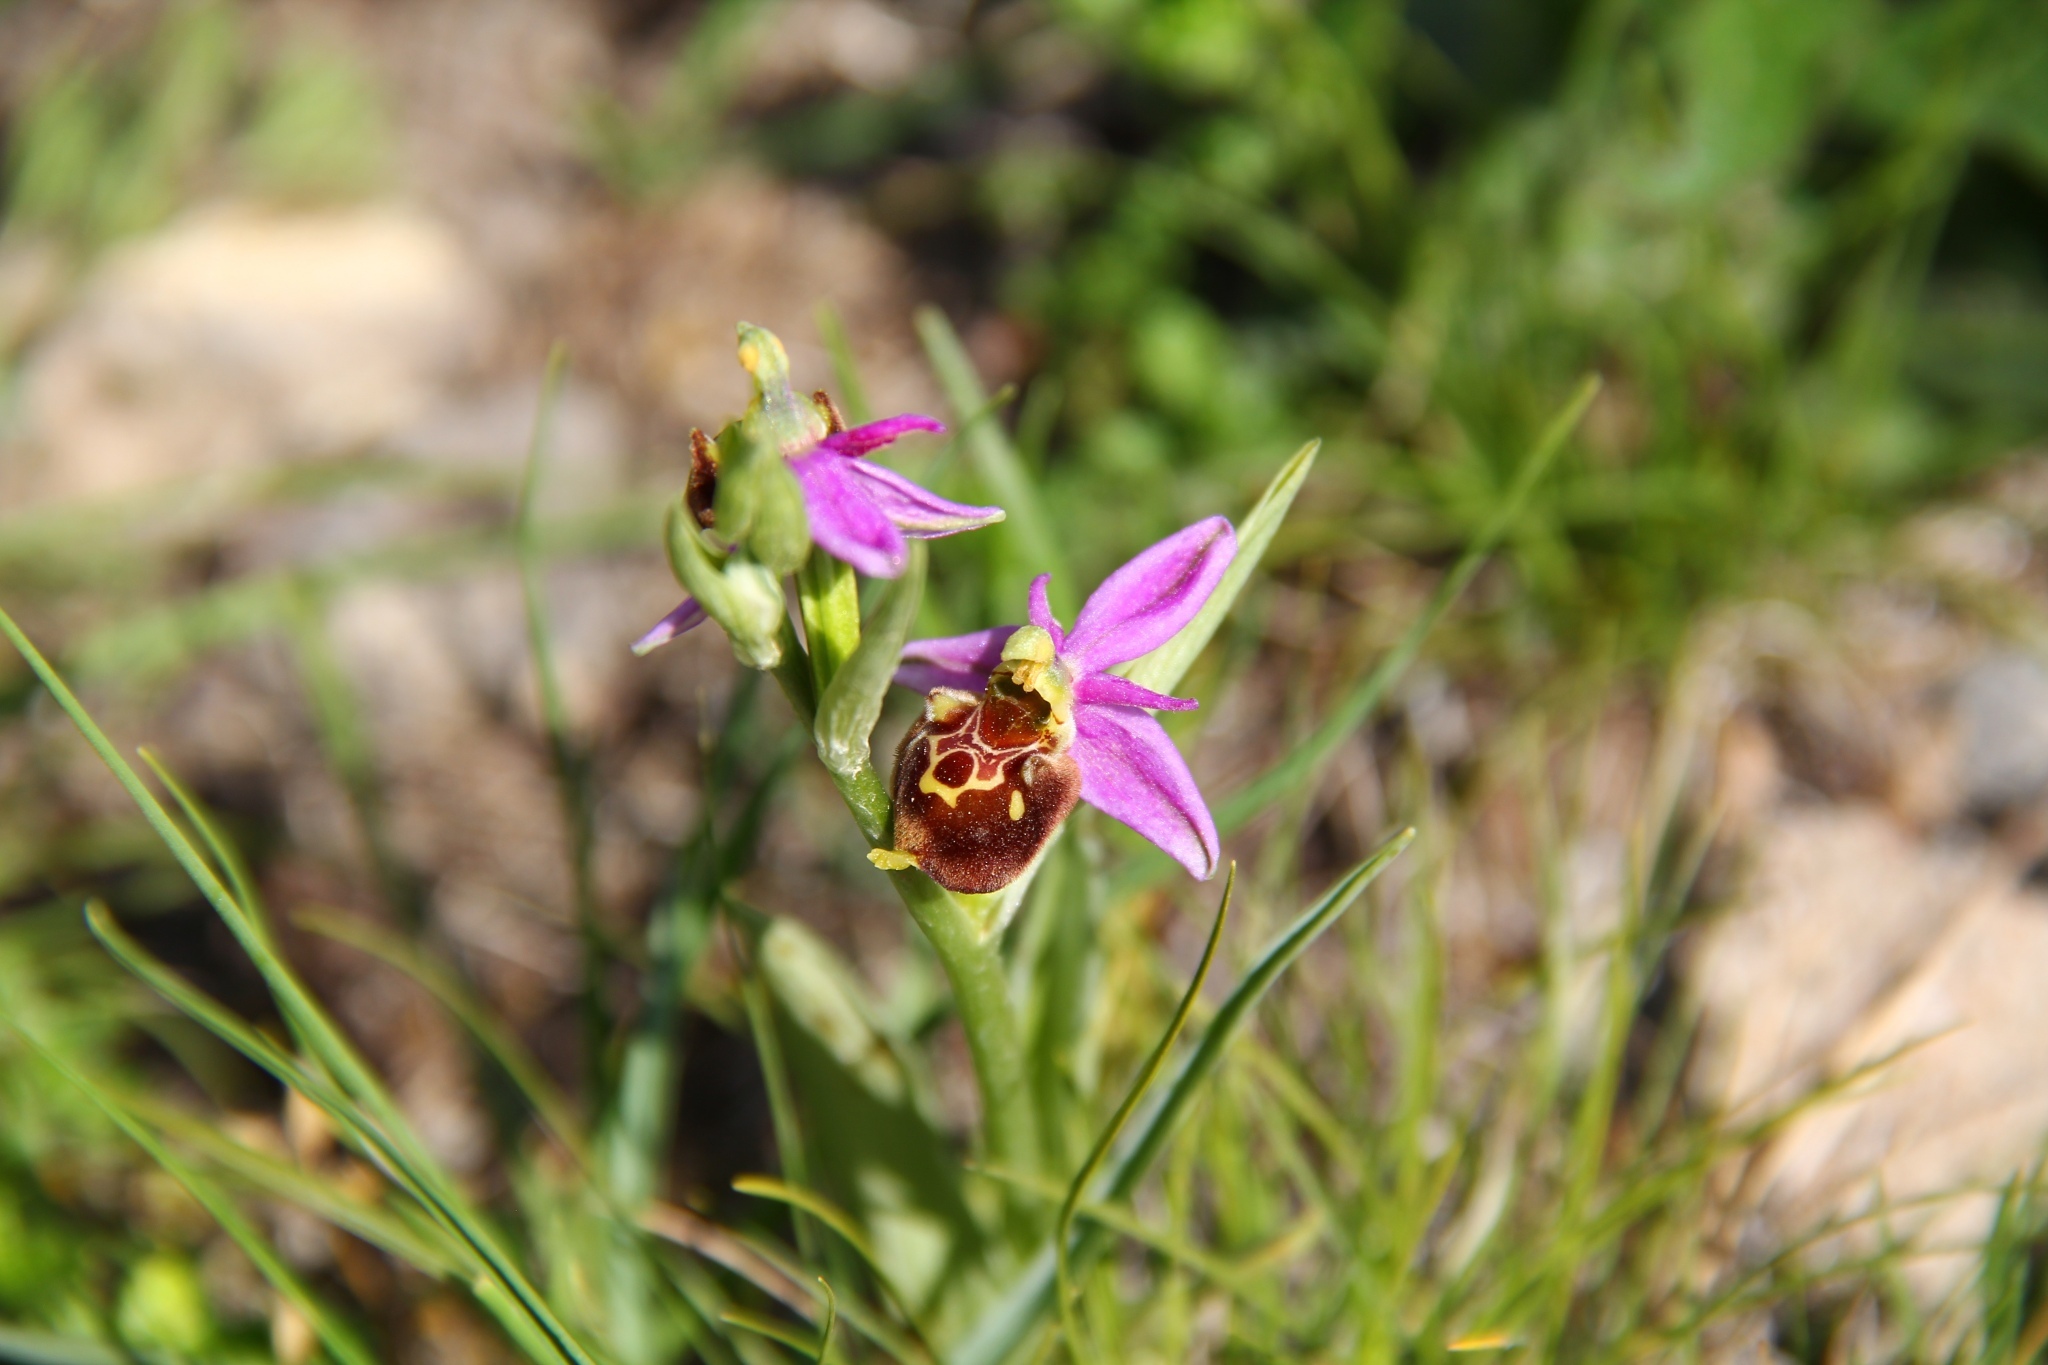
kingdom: Plantae
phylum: Tracheophyta
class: Liliopsida
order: Asparagales
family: Orchidaceae
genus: Ophrys
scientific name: Ophrys holosericea
